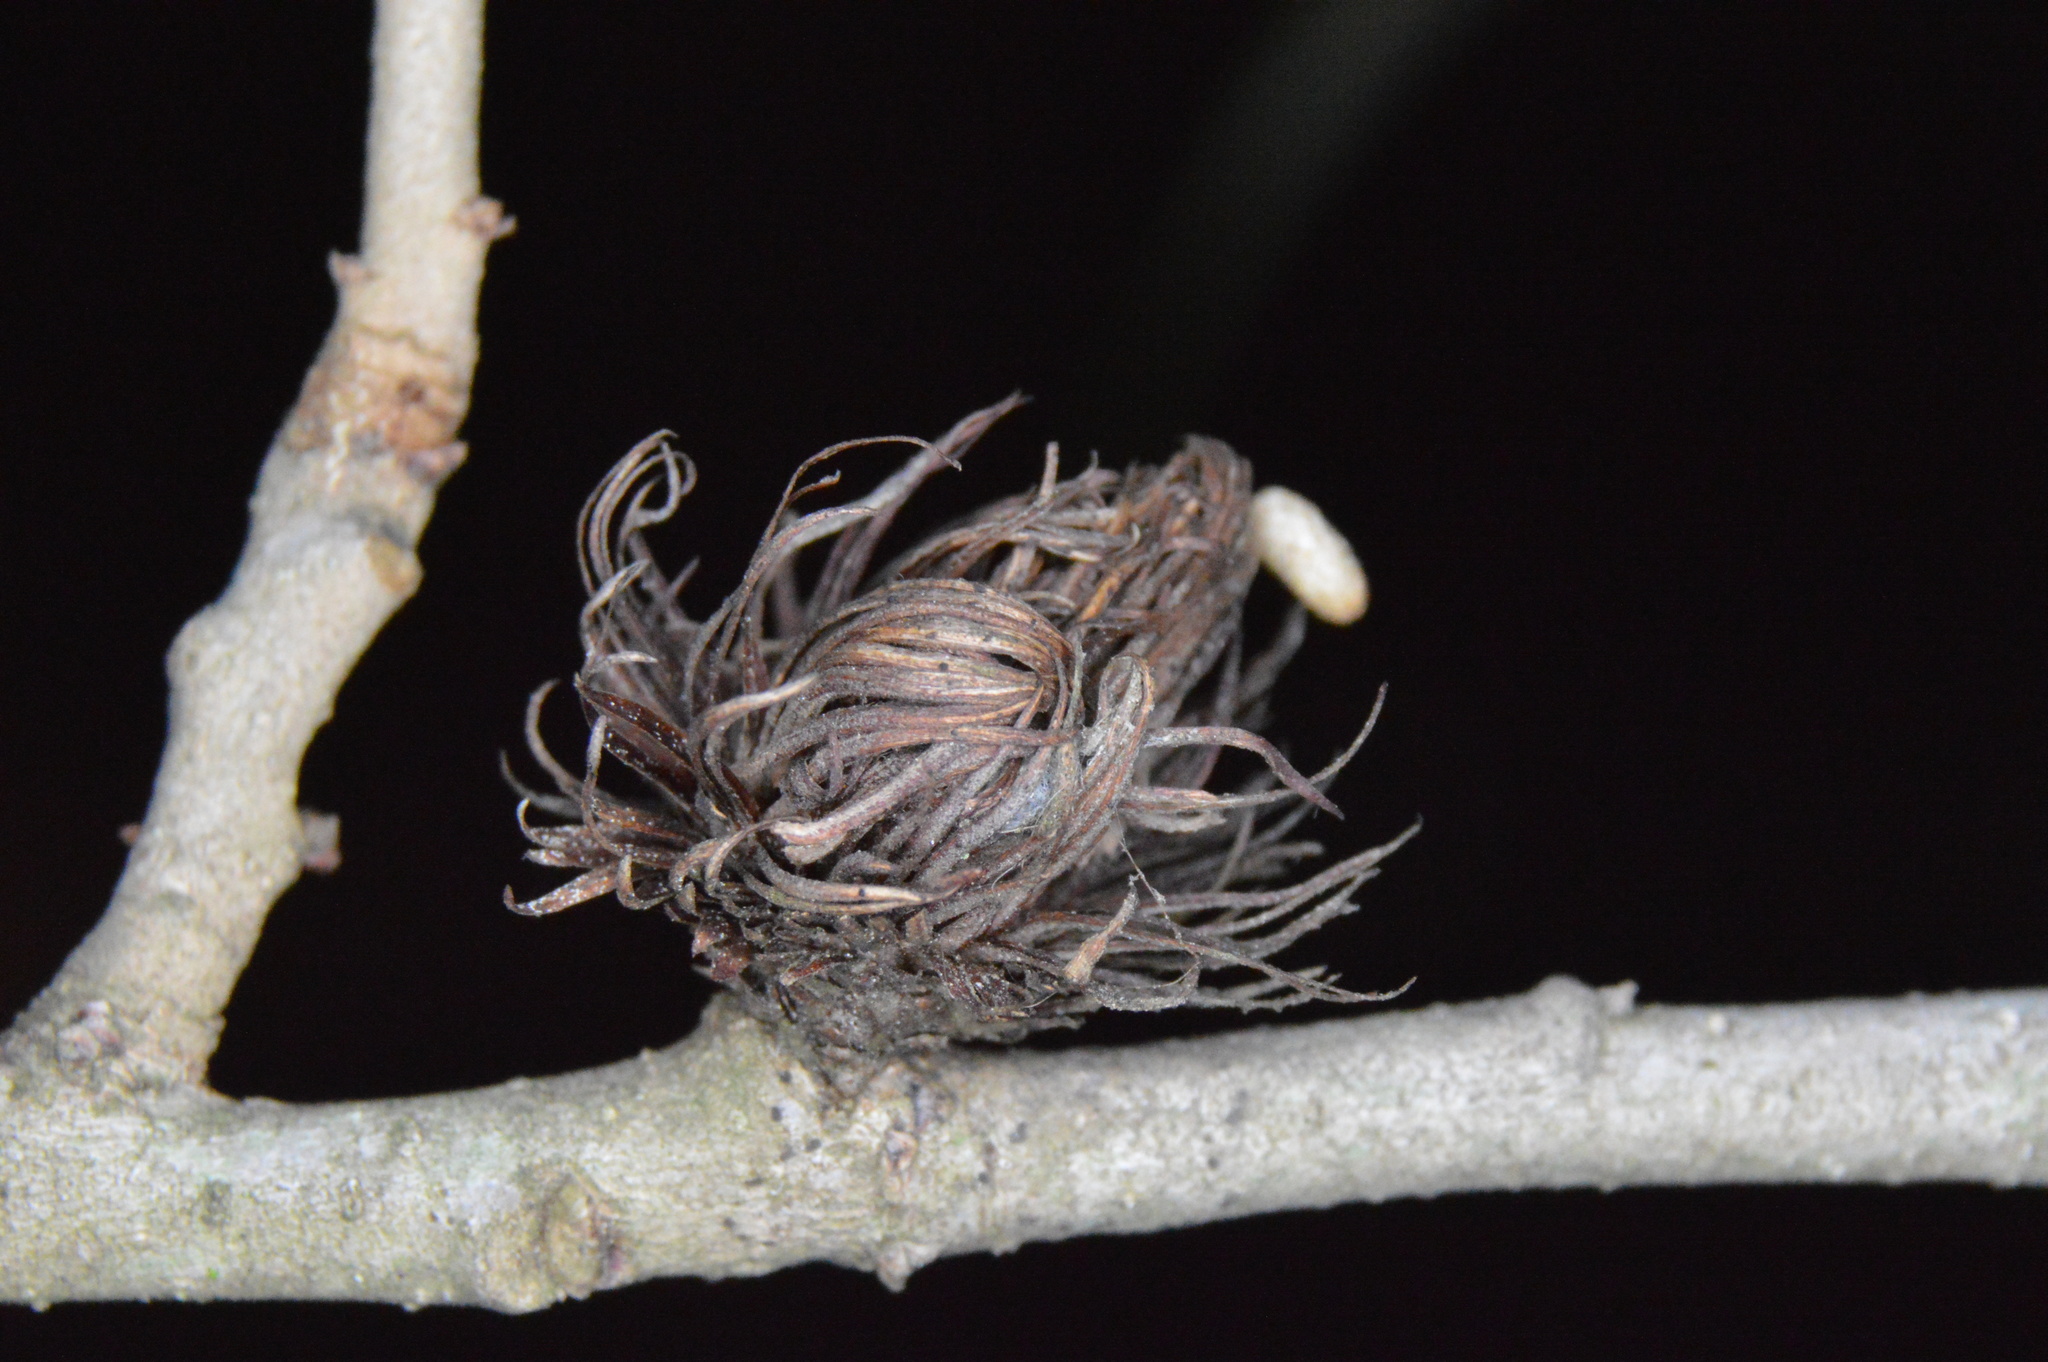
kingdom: Animalia
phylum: Arthropoda
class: Insecta
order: Hymenoptera
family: Cynipidae
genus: Andricus
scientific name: Andricus quercusfoliatus
